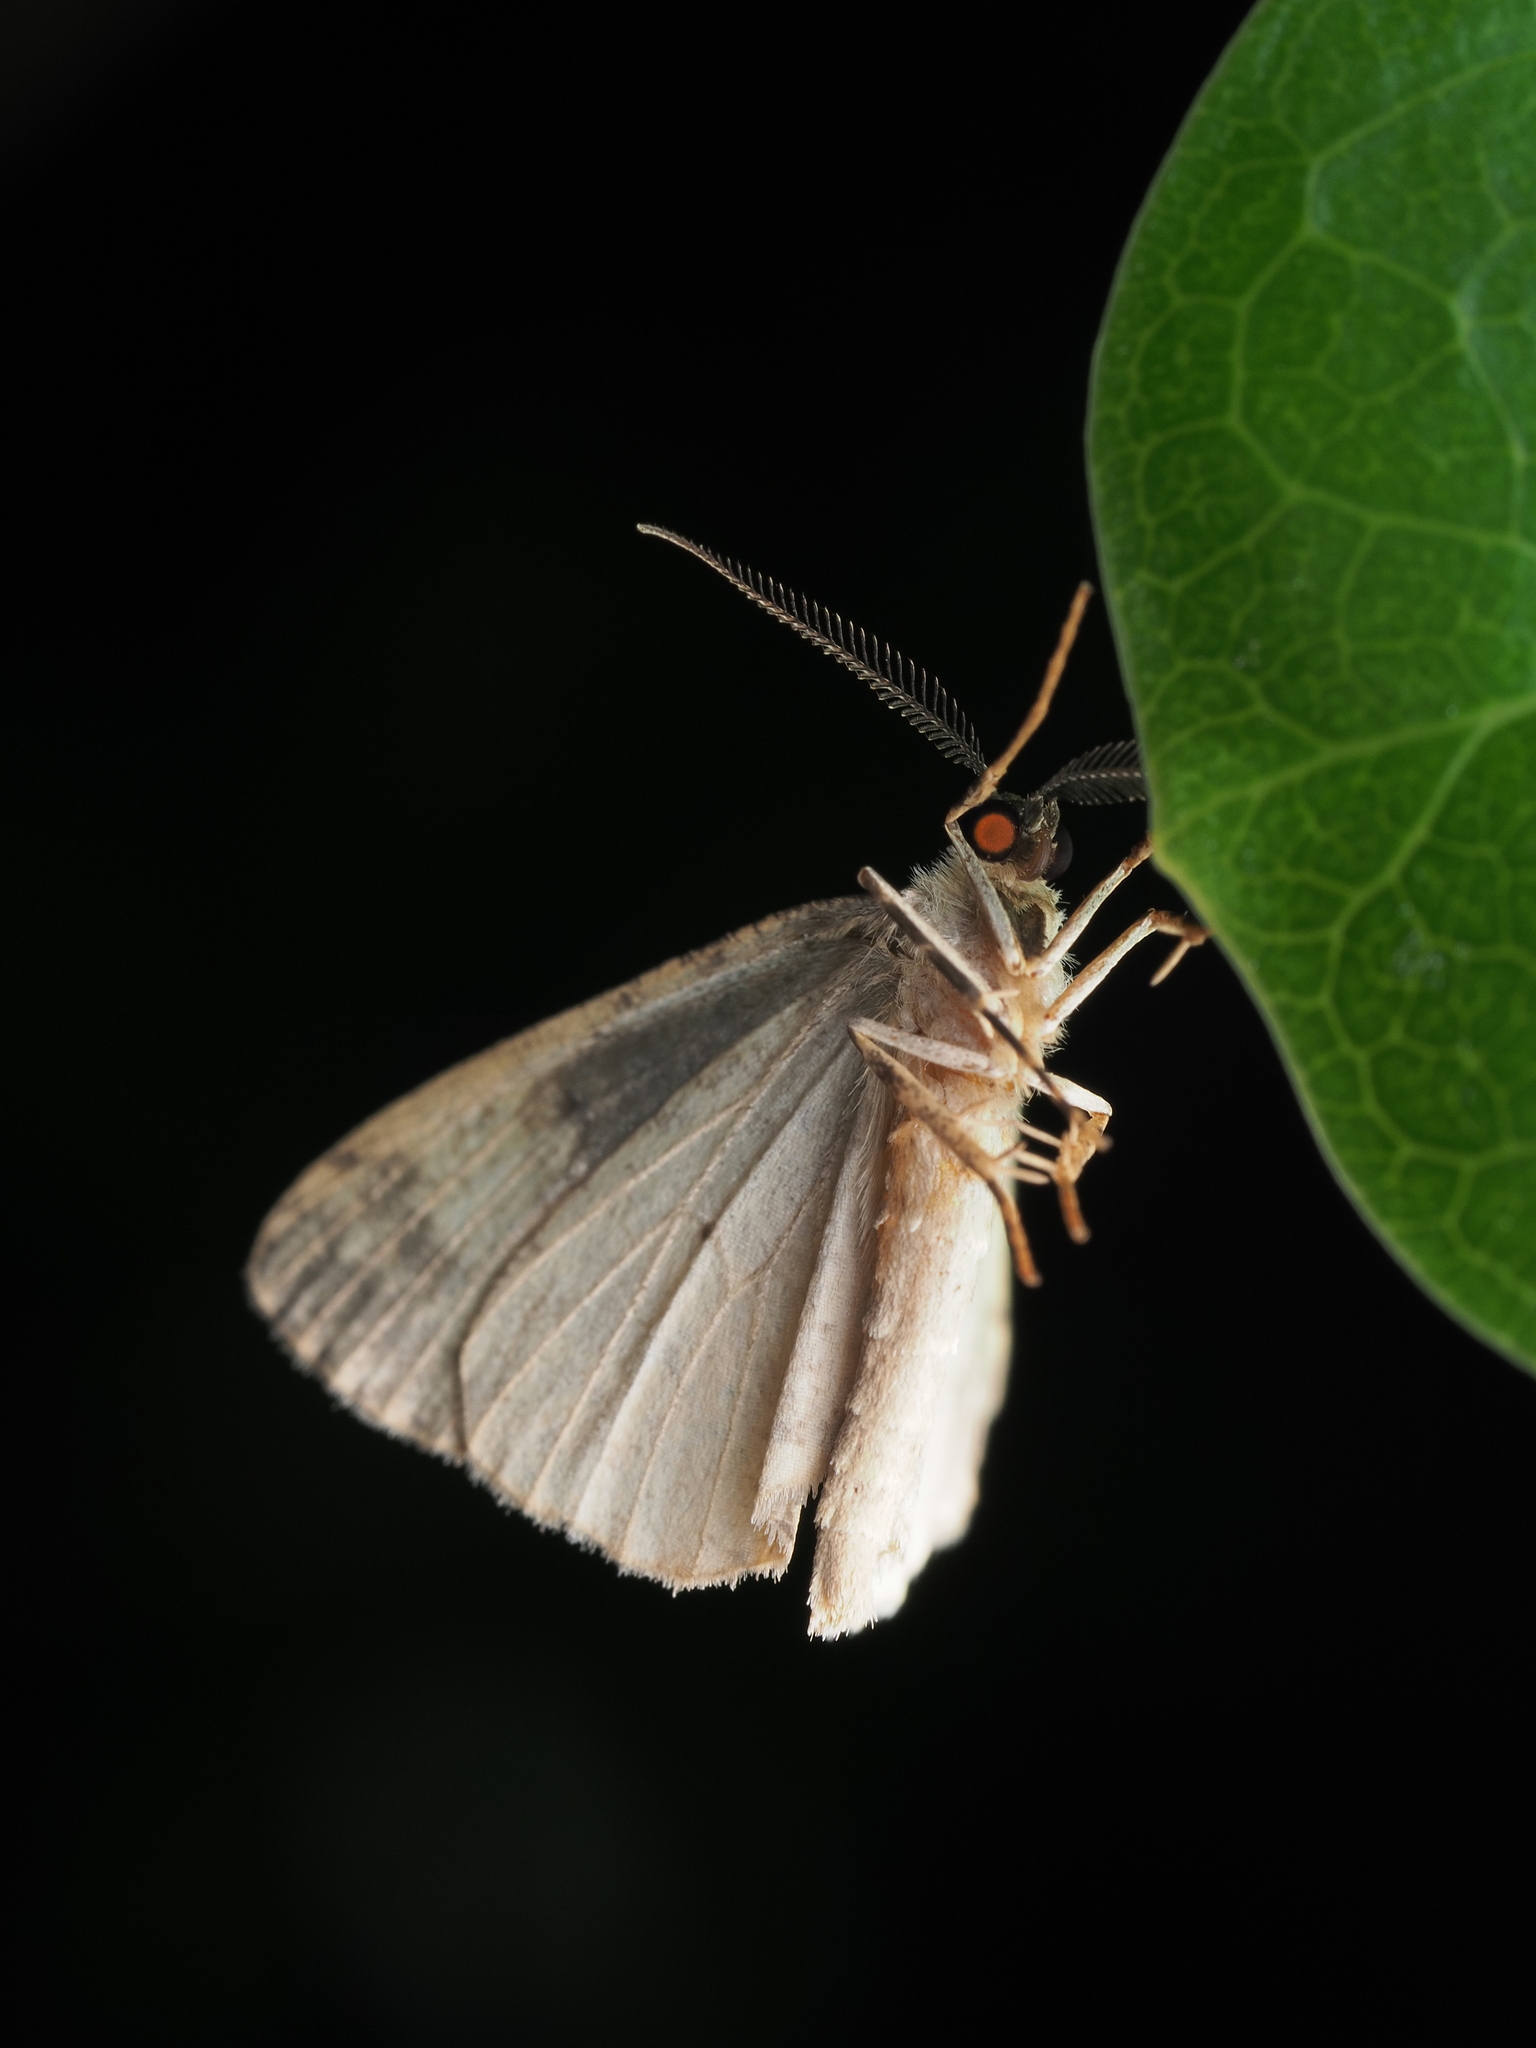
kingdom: Animalia
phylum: Arthropoda
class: Insecta
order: Lepidoptera
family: Geometridae
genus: Pseudocoremia
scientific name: Pseudocoremia indistincta
